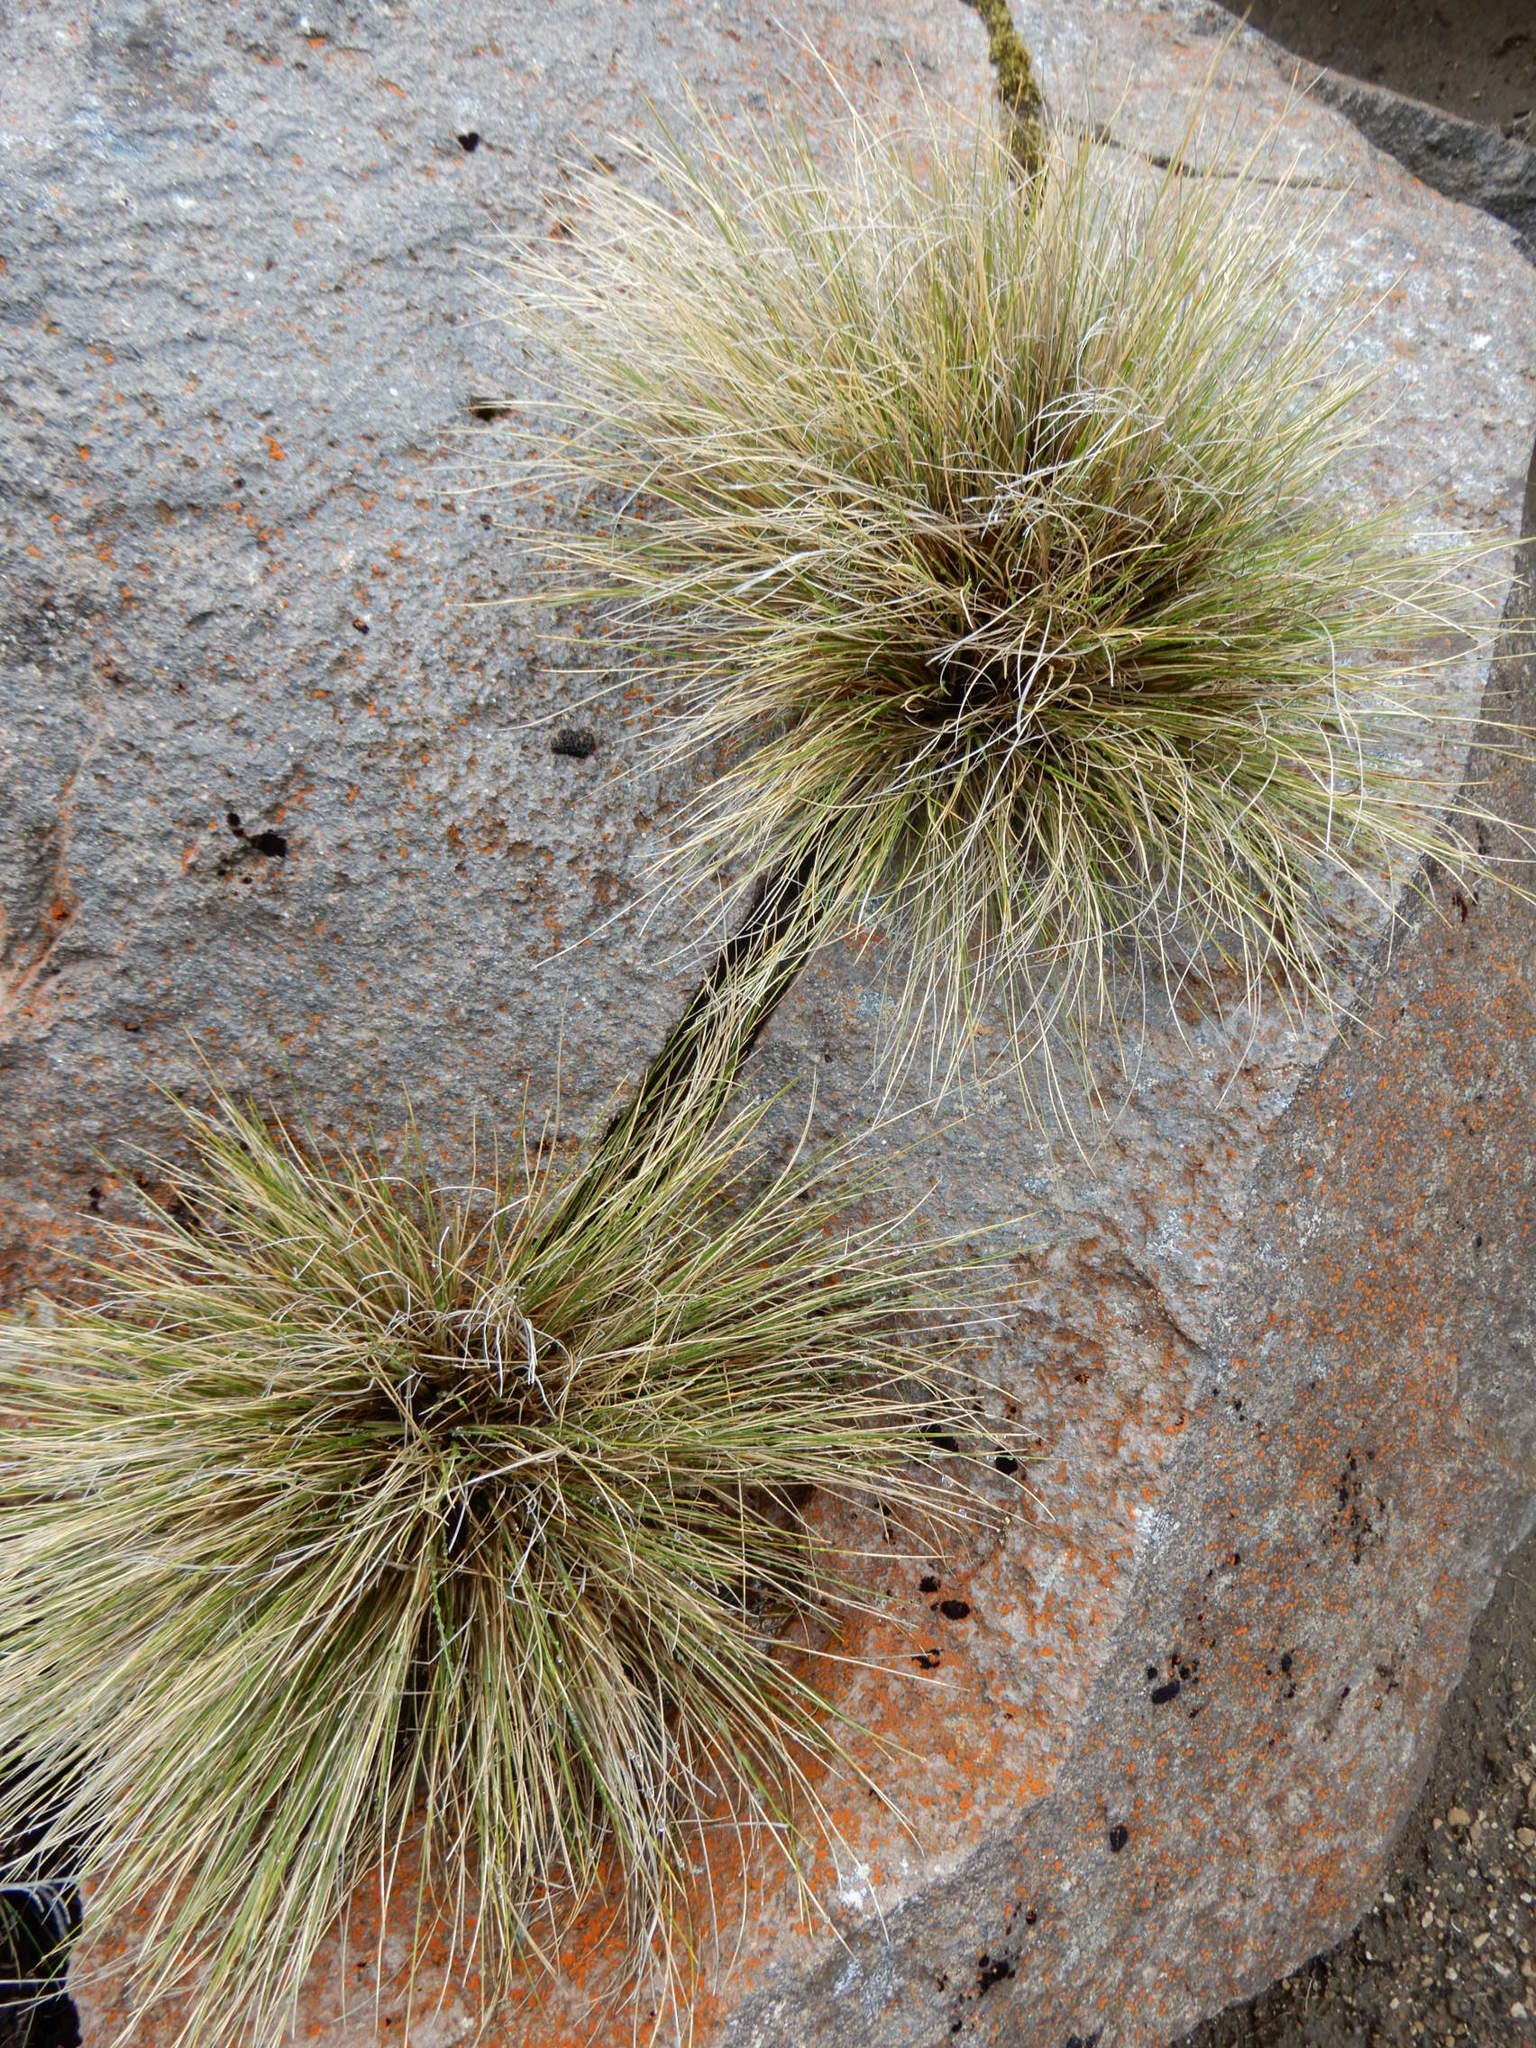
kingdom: Plantae
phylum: Tracheophyta
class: Liliopsida
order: Poales
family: Poaceae
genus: Rytidosperma
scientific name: Rytidosperma setifolium
